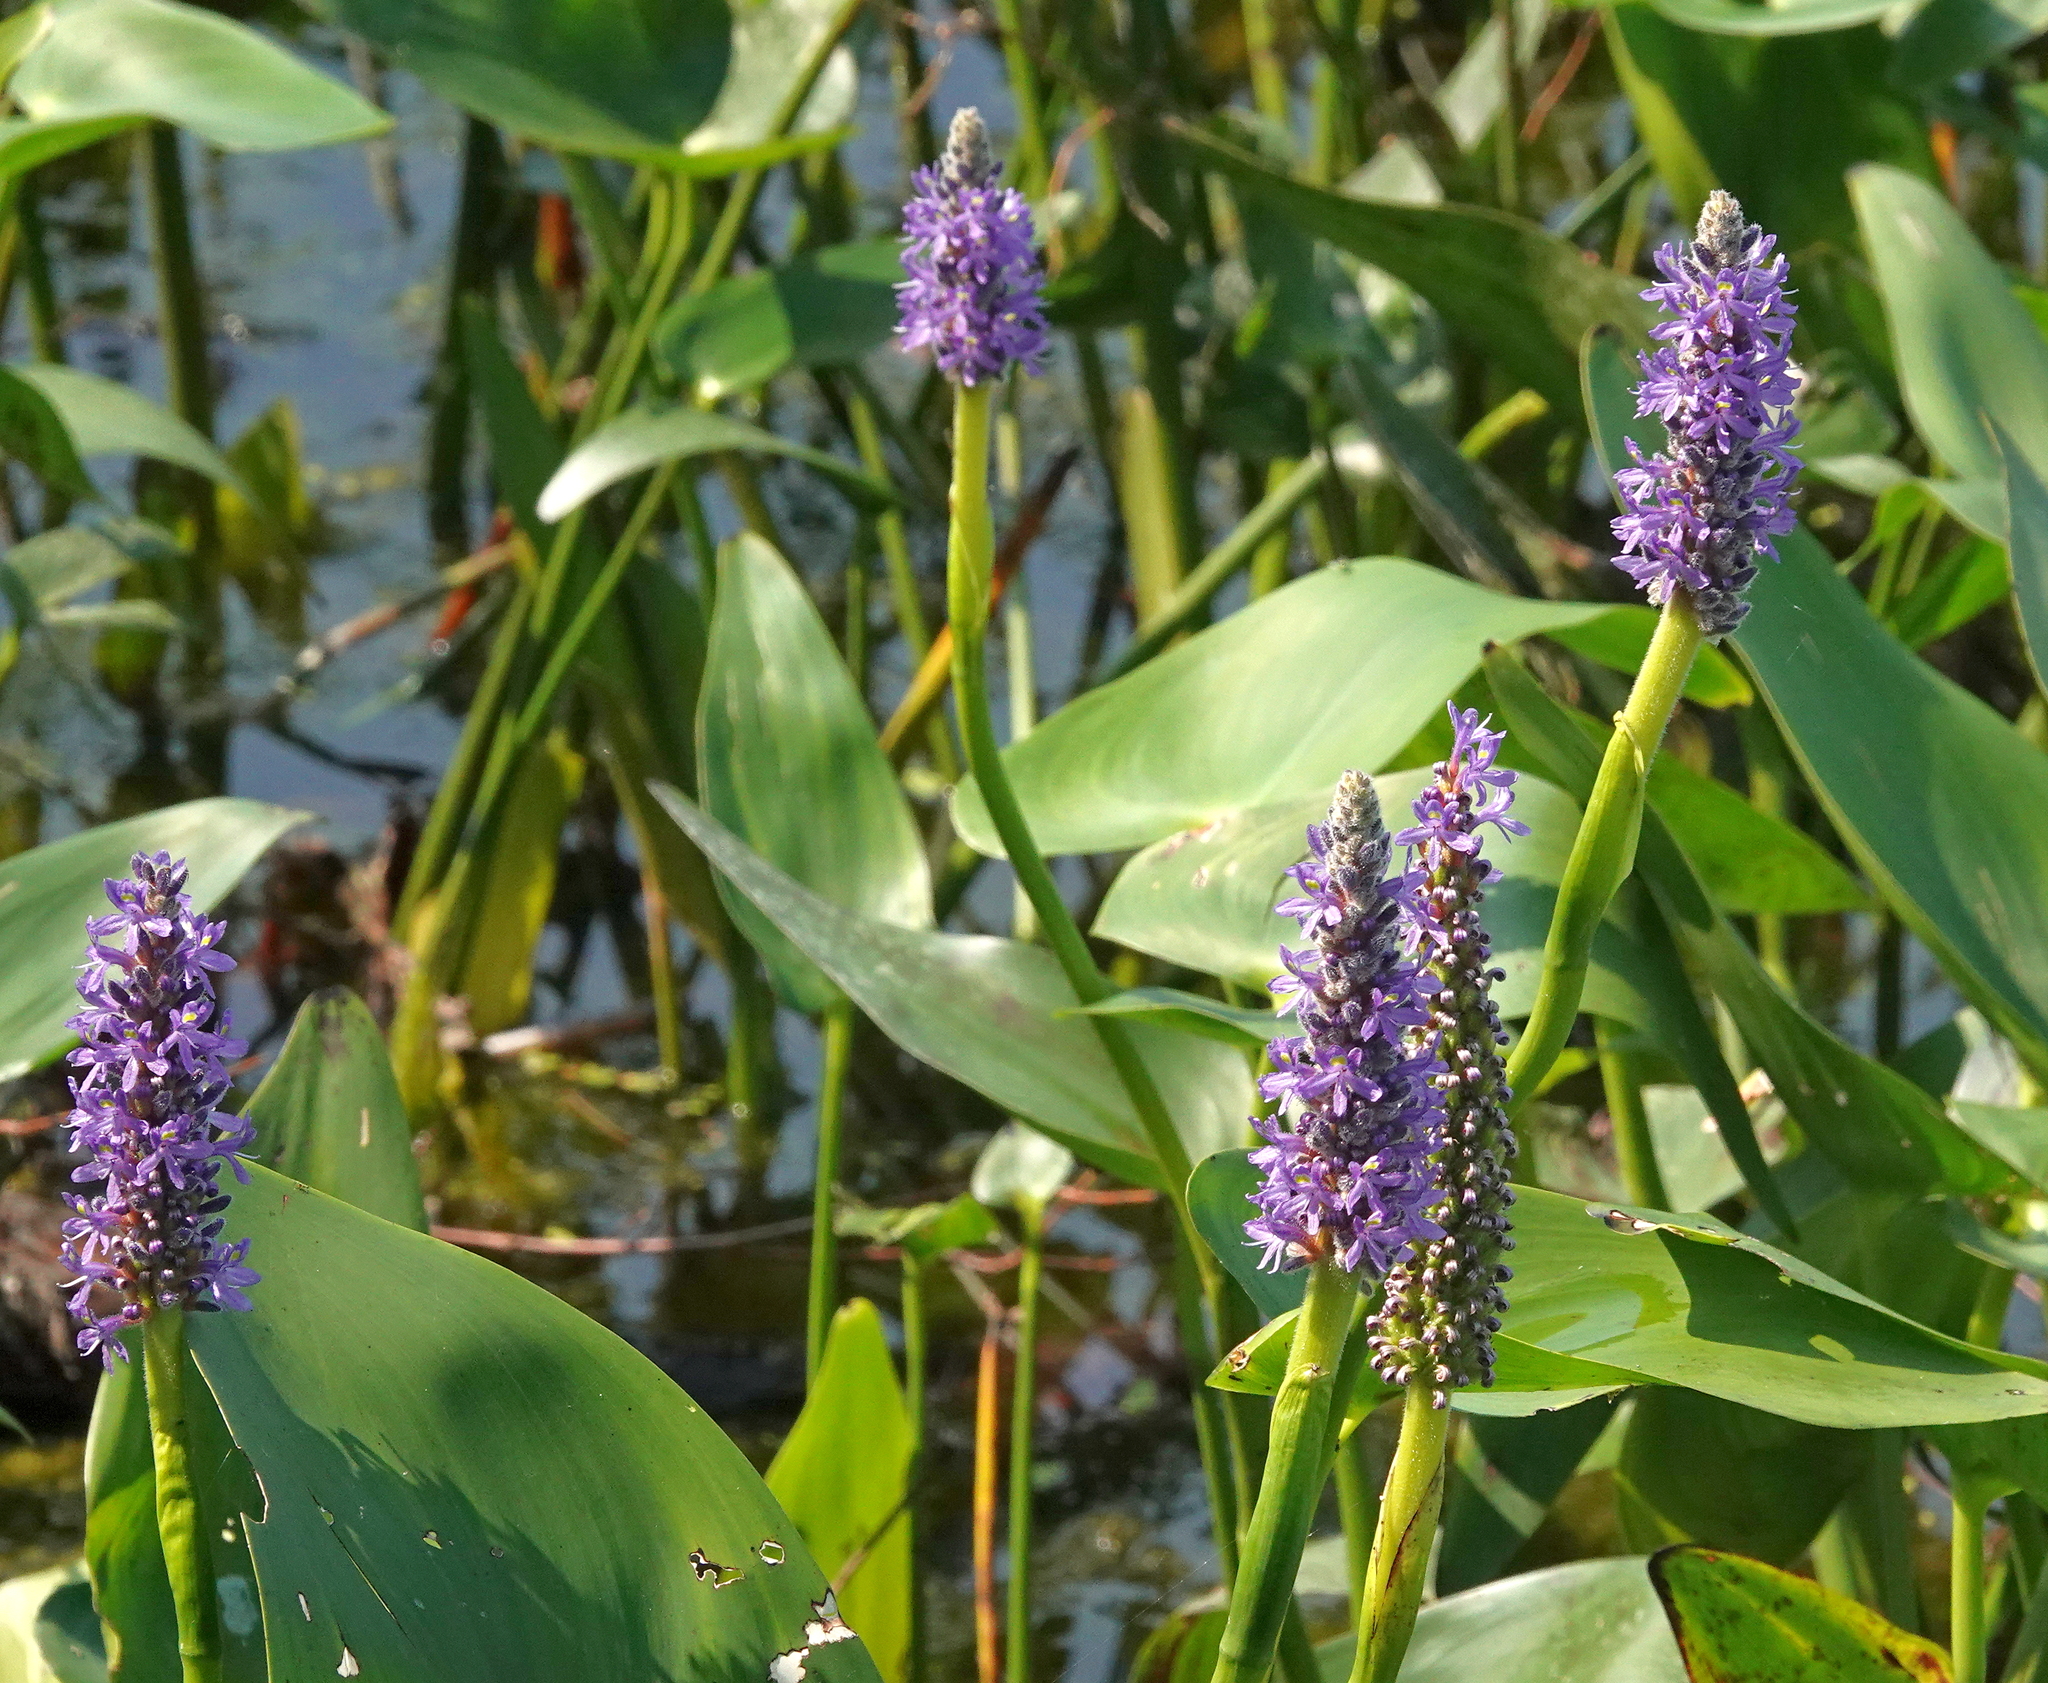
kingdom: Plantae
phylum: Tracheophyta
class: Liliopsida
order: Commelinales
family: Pontederiaceae
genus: Pontederia
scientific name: Pontederia cordata
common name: Pickerelweed
